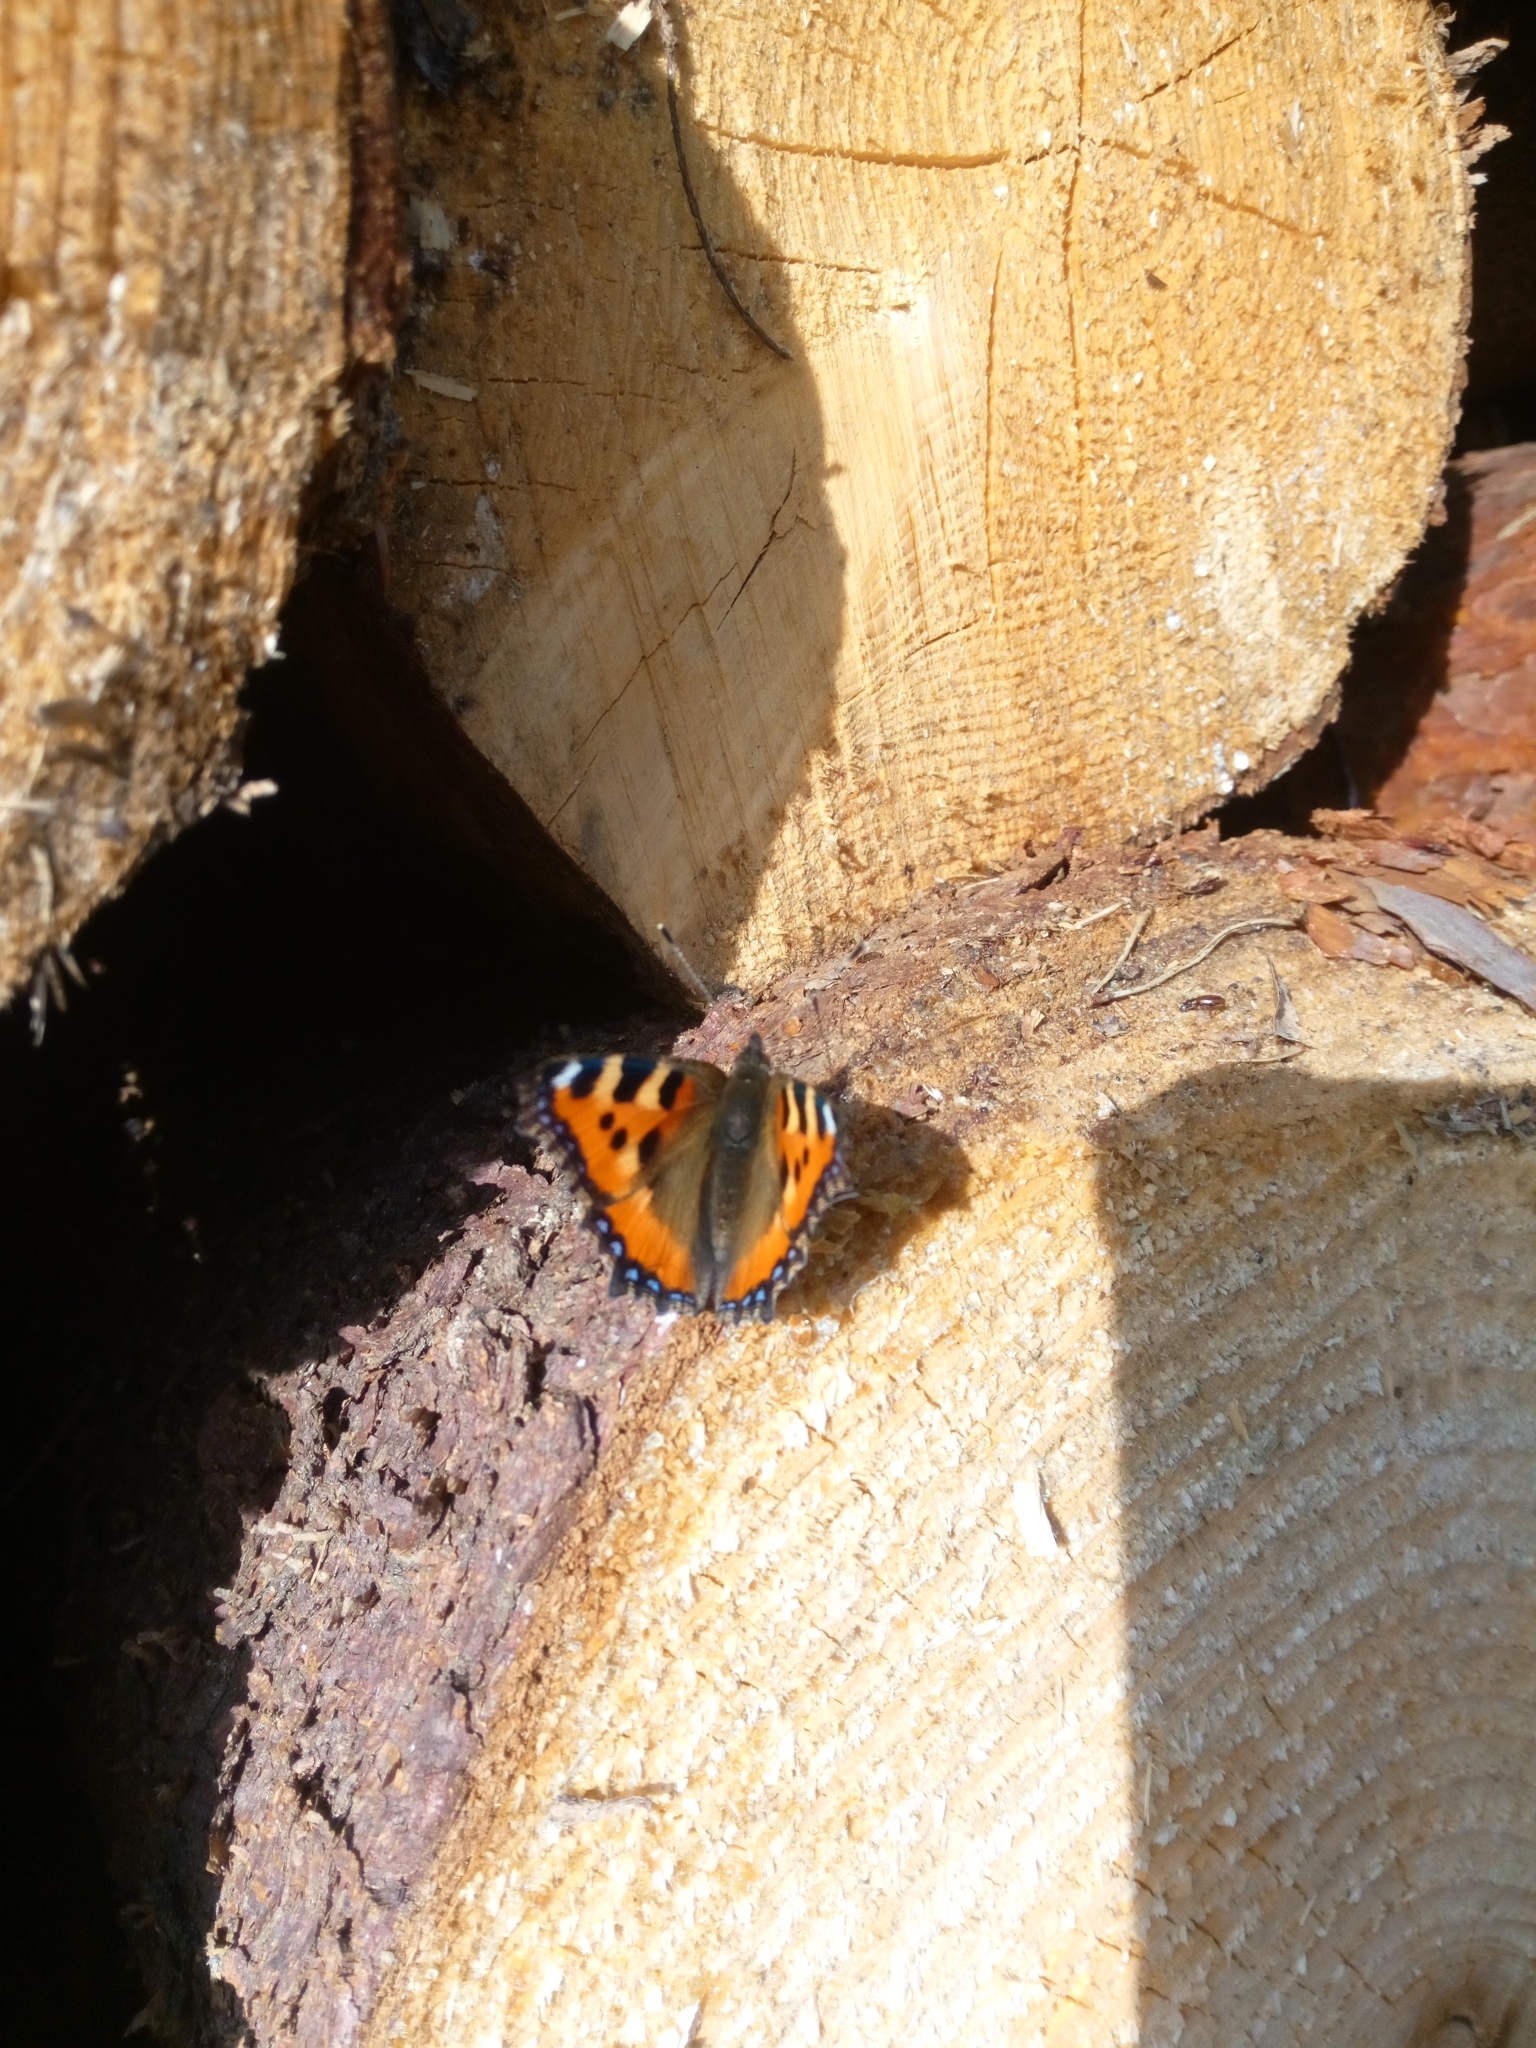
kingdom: Animalia
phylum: Arthropoda
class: Insecta
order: Lepidoptera
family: Nymphalidae
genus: Aglais
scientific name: Aglais urticae
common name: Small tortoiseshell
